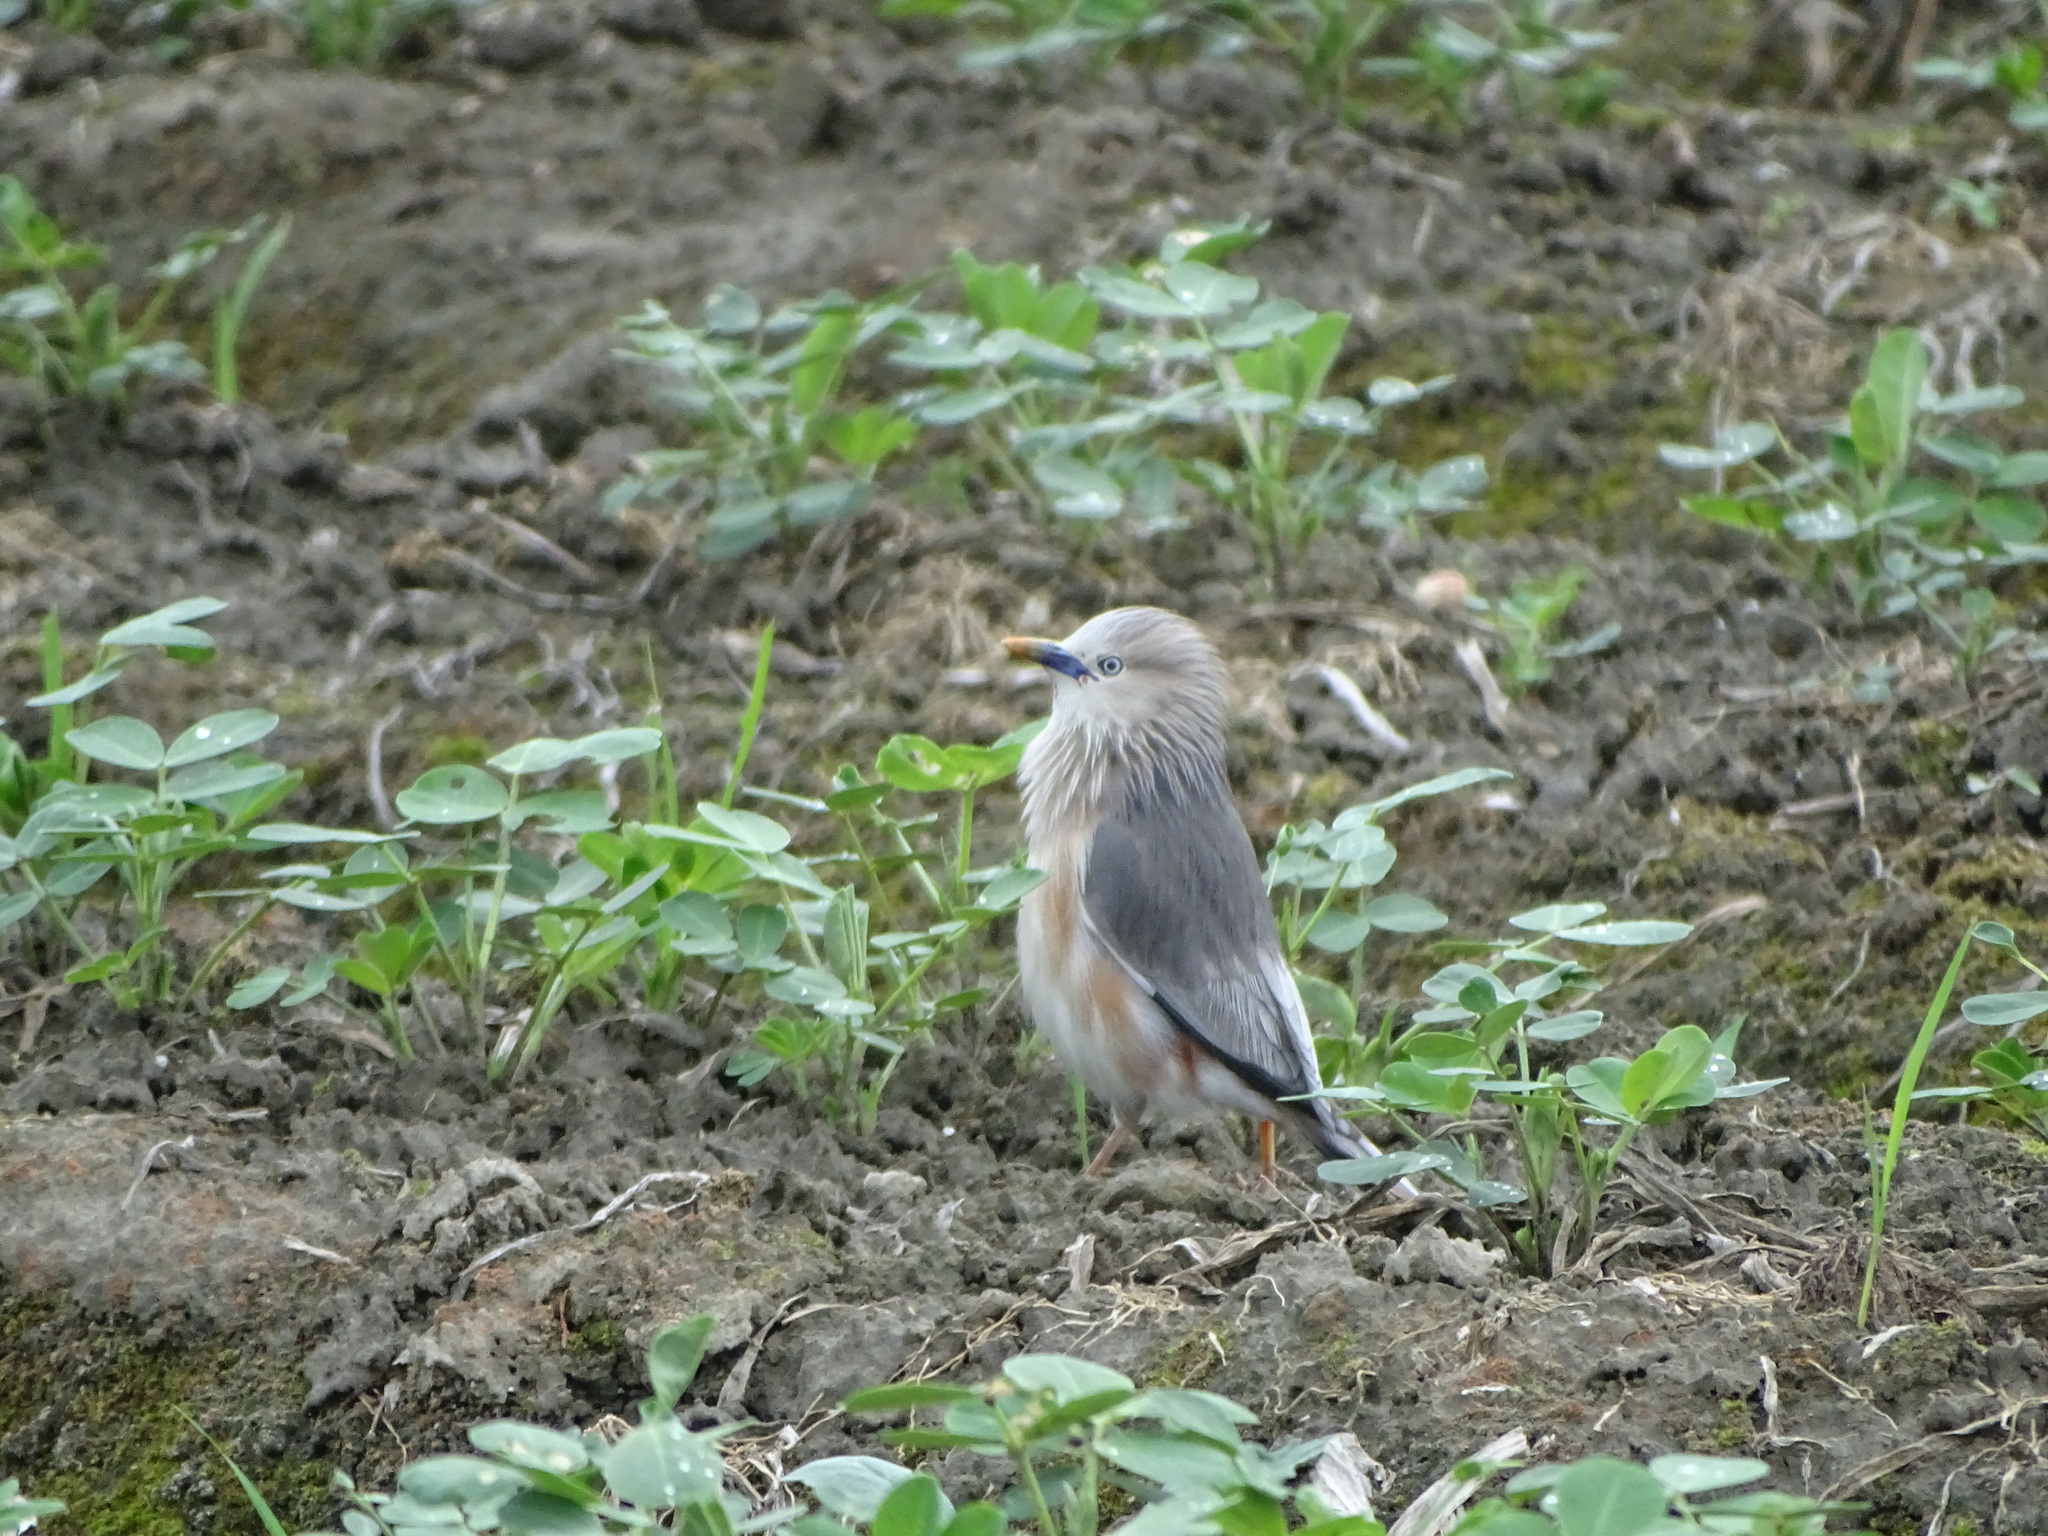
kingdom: Animalia
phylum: Chordata
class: Aves
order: Passeriformes
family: Sturnidae
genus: Sturnia
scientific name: Sturnia malabarica
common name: Chestnut-tailed starling
